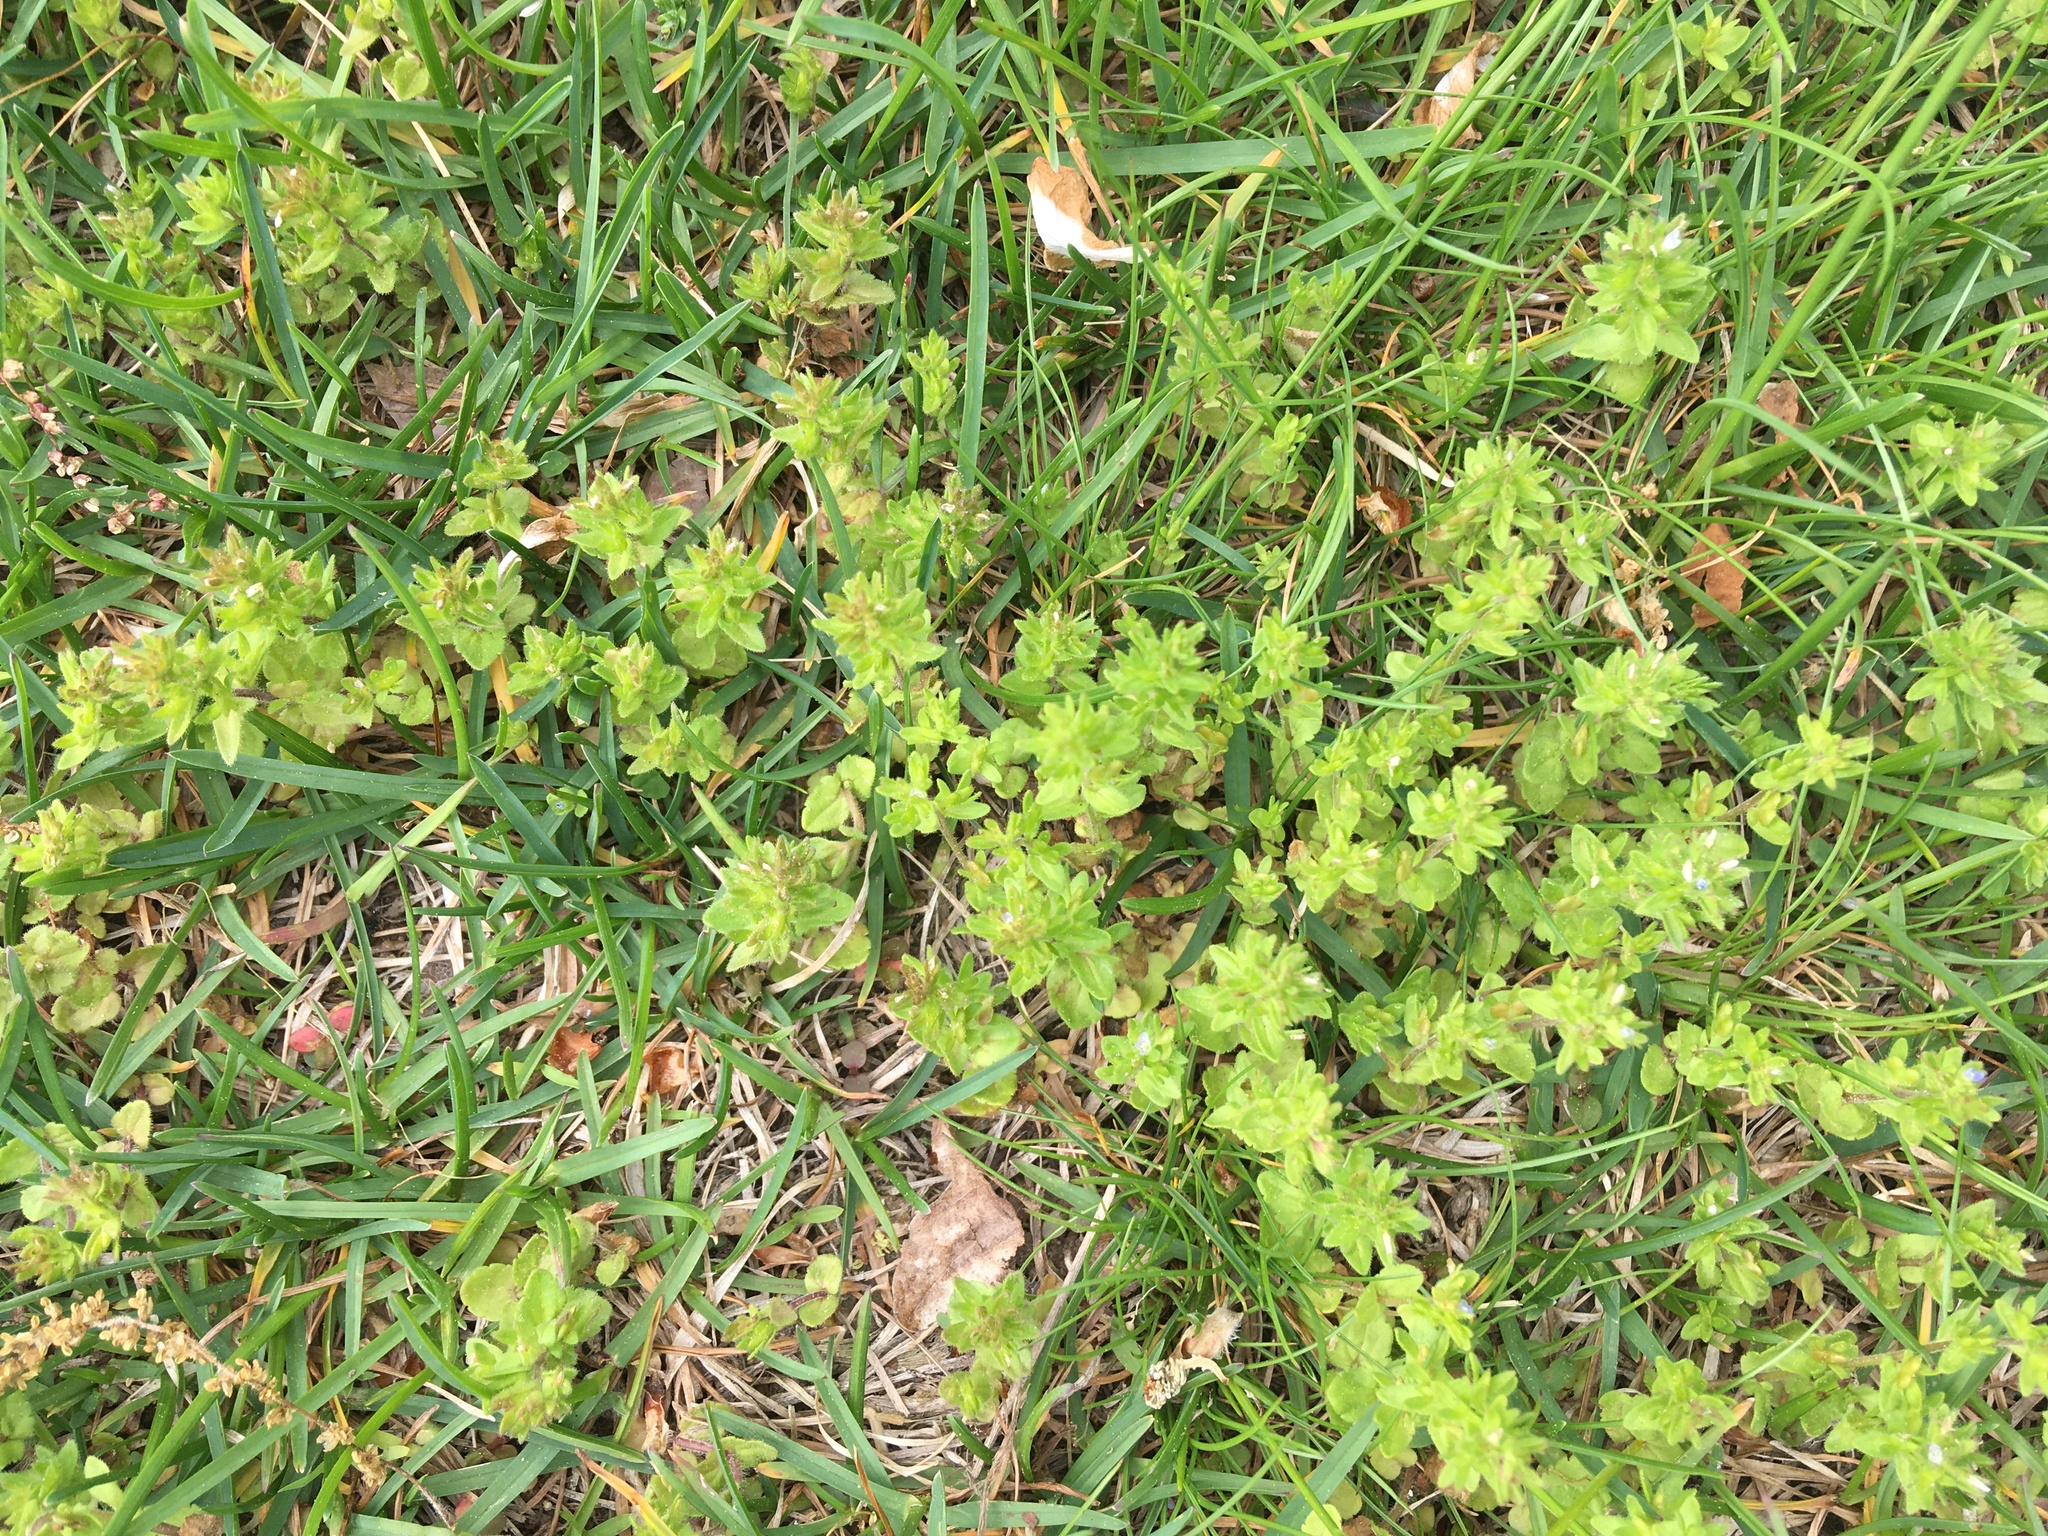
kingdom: Plantae
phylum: Tracheophyta
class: Magnoliopsida
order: Lamiales
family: Plantaginaceae
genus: Veronica
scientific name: Veronica arvensis
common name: Corn speedwell
